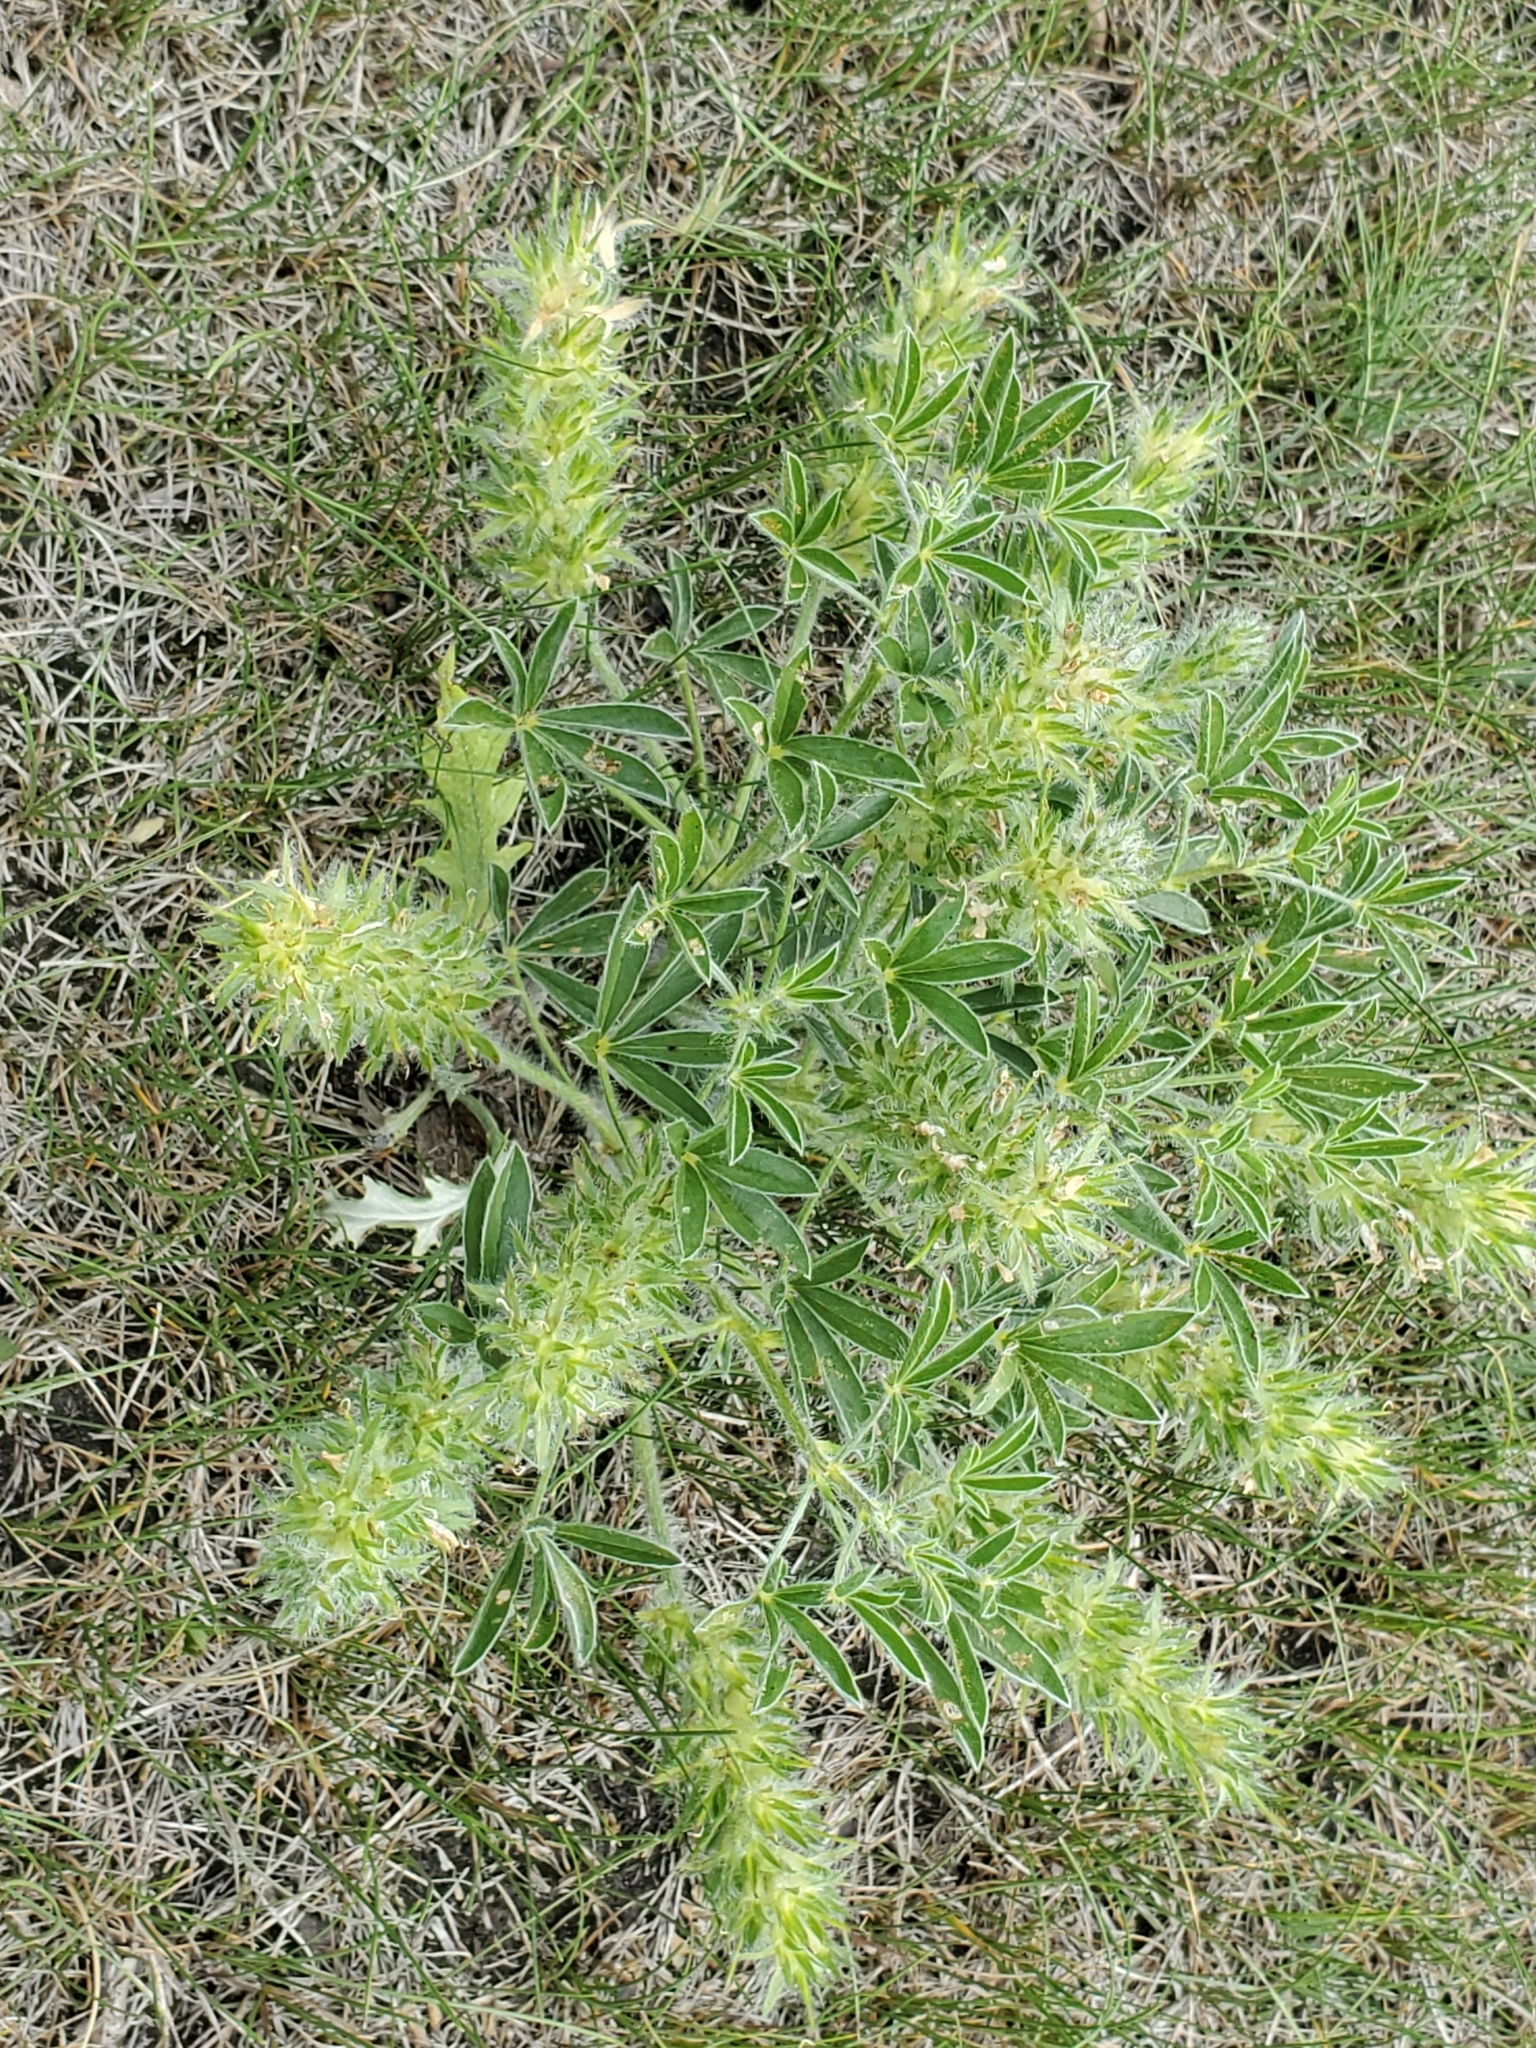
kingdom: Plantae
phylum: Tracheophyta
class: Magnoliopsida
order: Fabales
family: Fabaceae
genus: Pediomelum
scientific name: Pediomelum esculentum
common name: Indian-turnip
